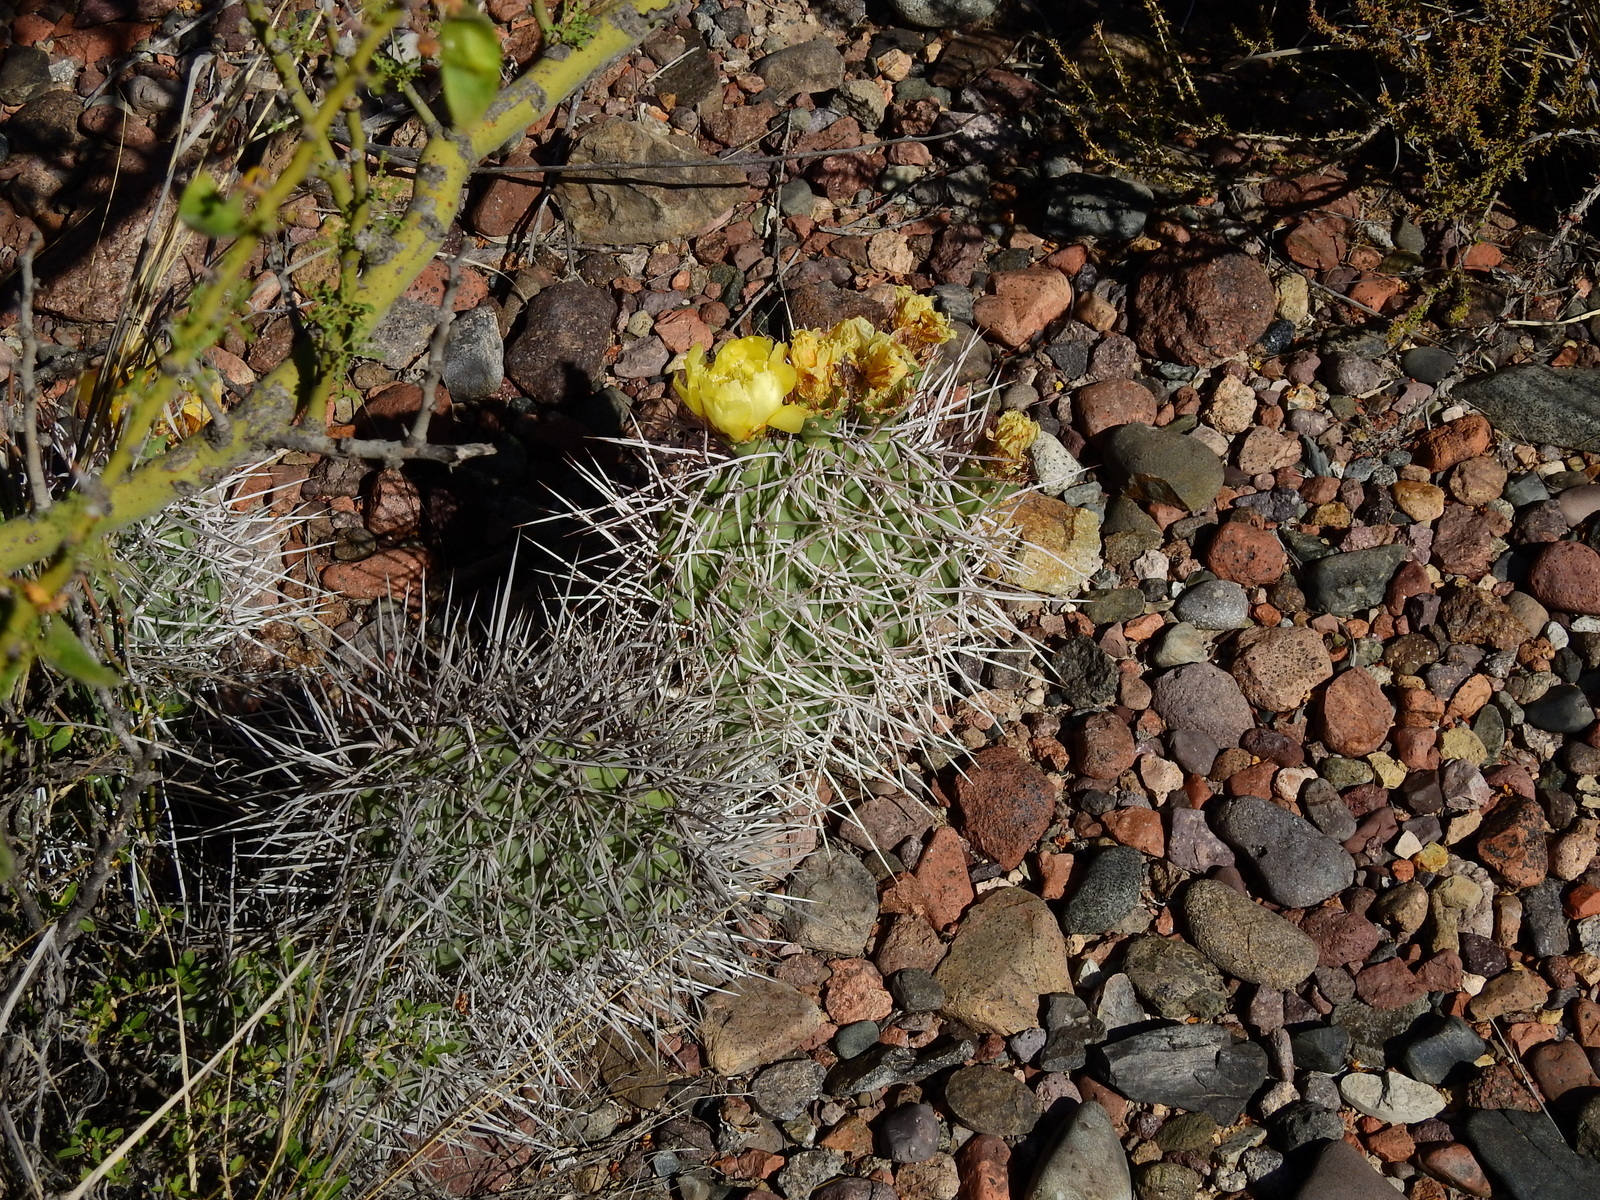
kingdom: Plantae
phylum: Tracheophyta
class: Magnoliopsida
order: Caryophyllales
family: Cactaceae
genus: Opuntia
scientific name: Opuntia sulphurea
